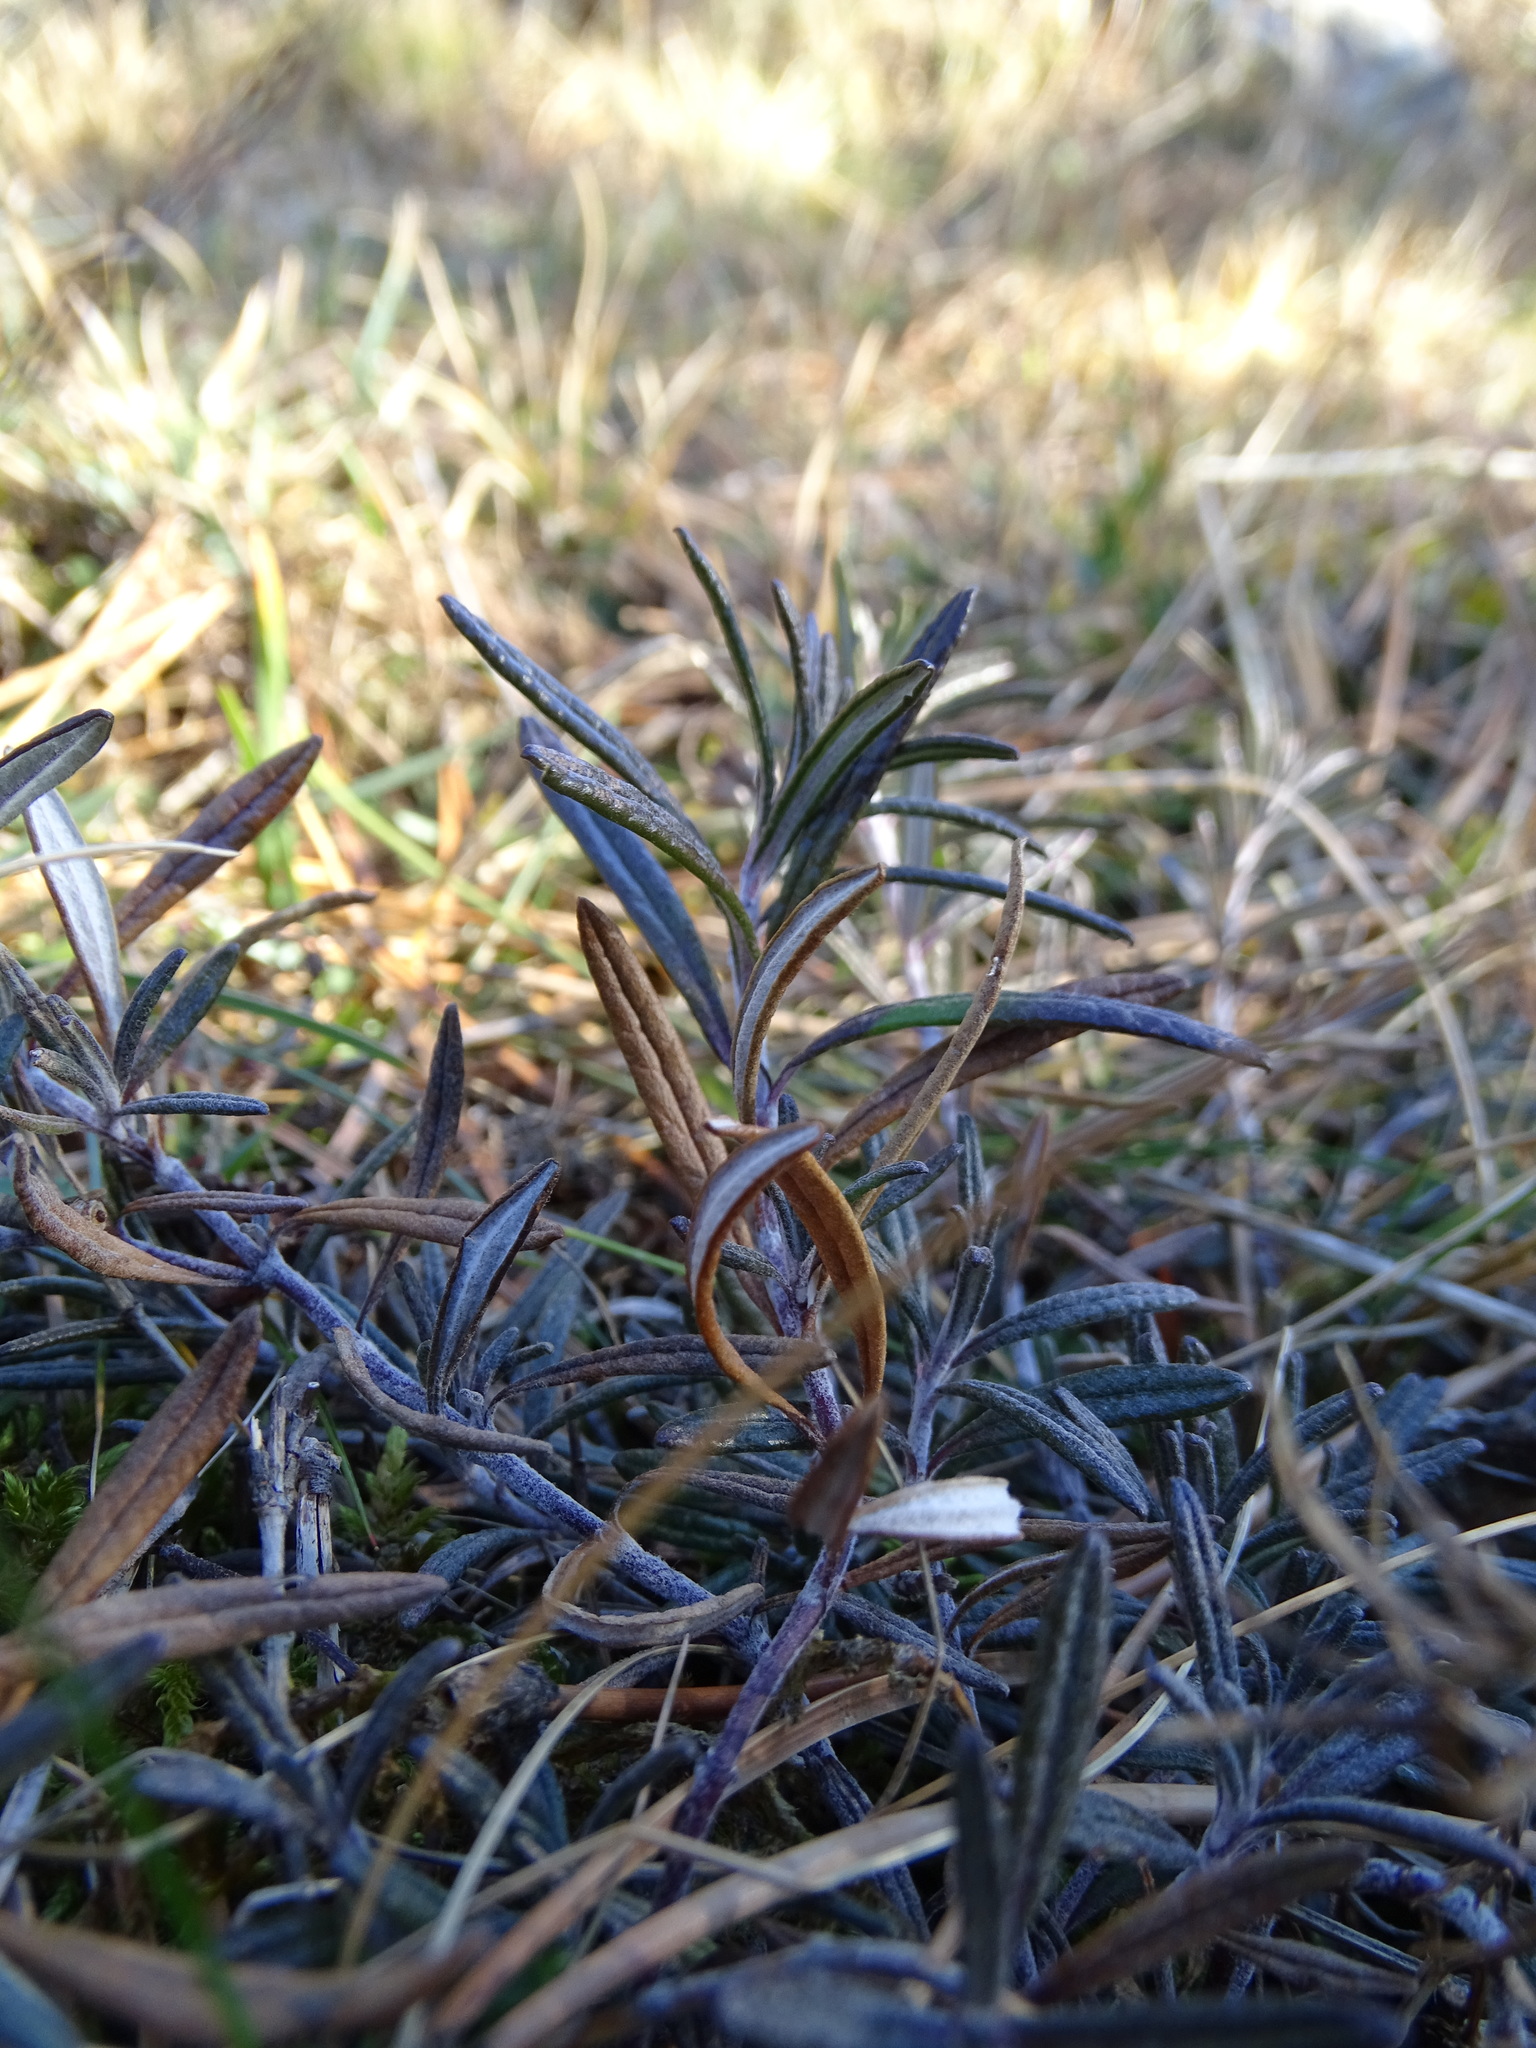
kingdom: Plantae
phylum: Tracheophyta
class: Magnoliopsida
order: Lamiales
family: Lamiaceae
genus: Teucrium
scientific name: Teucrium montanum
